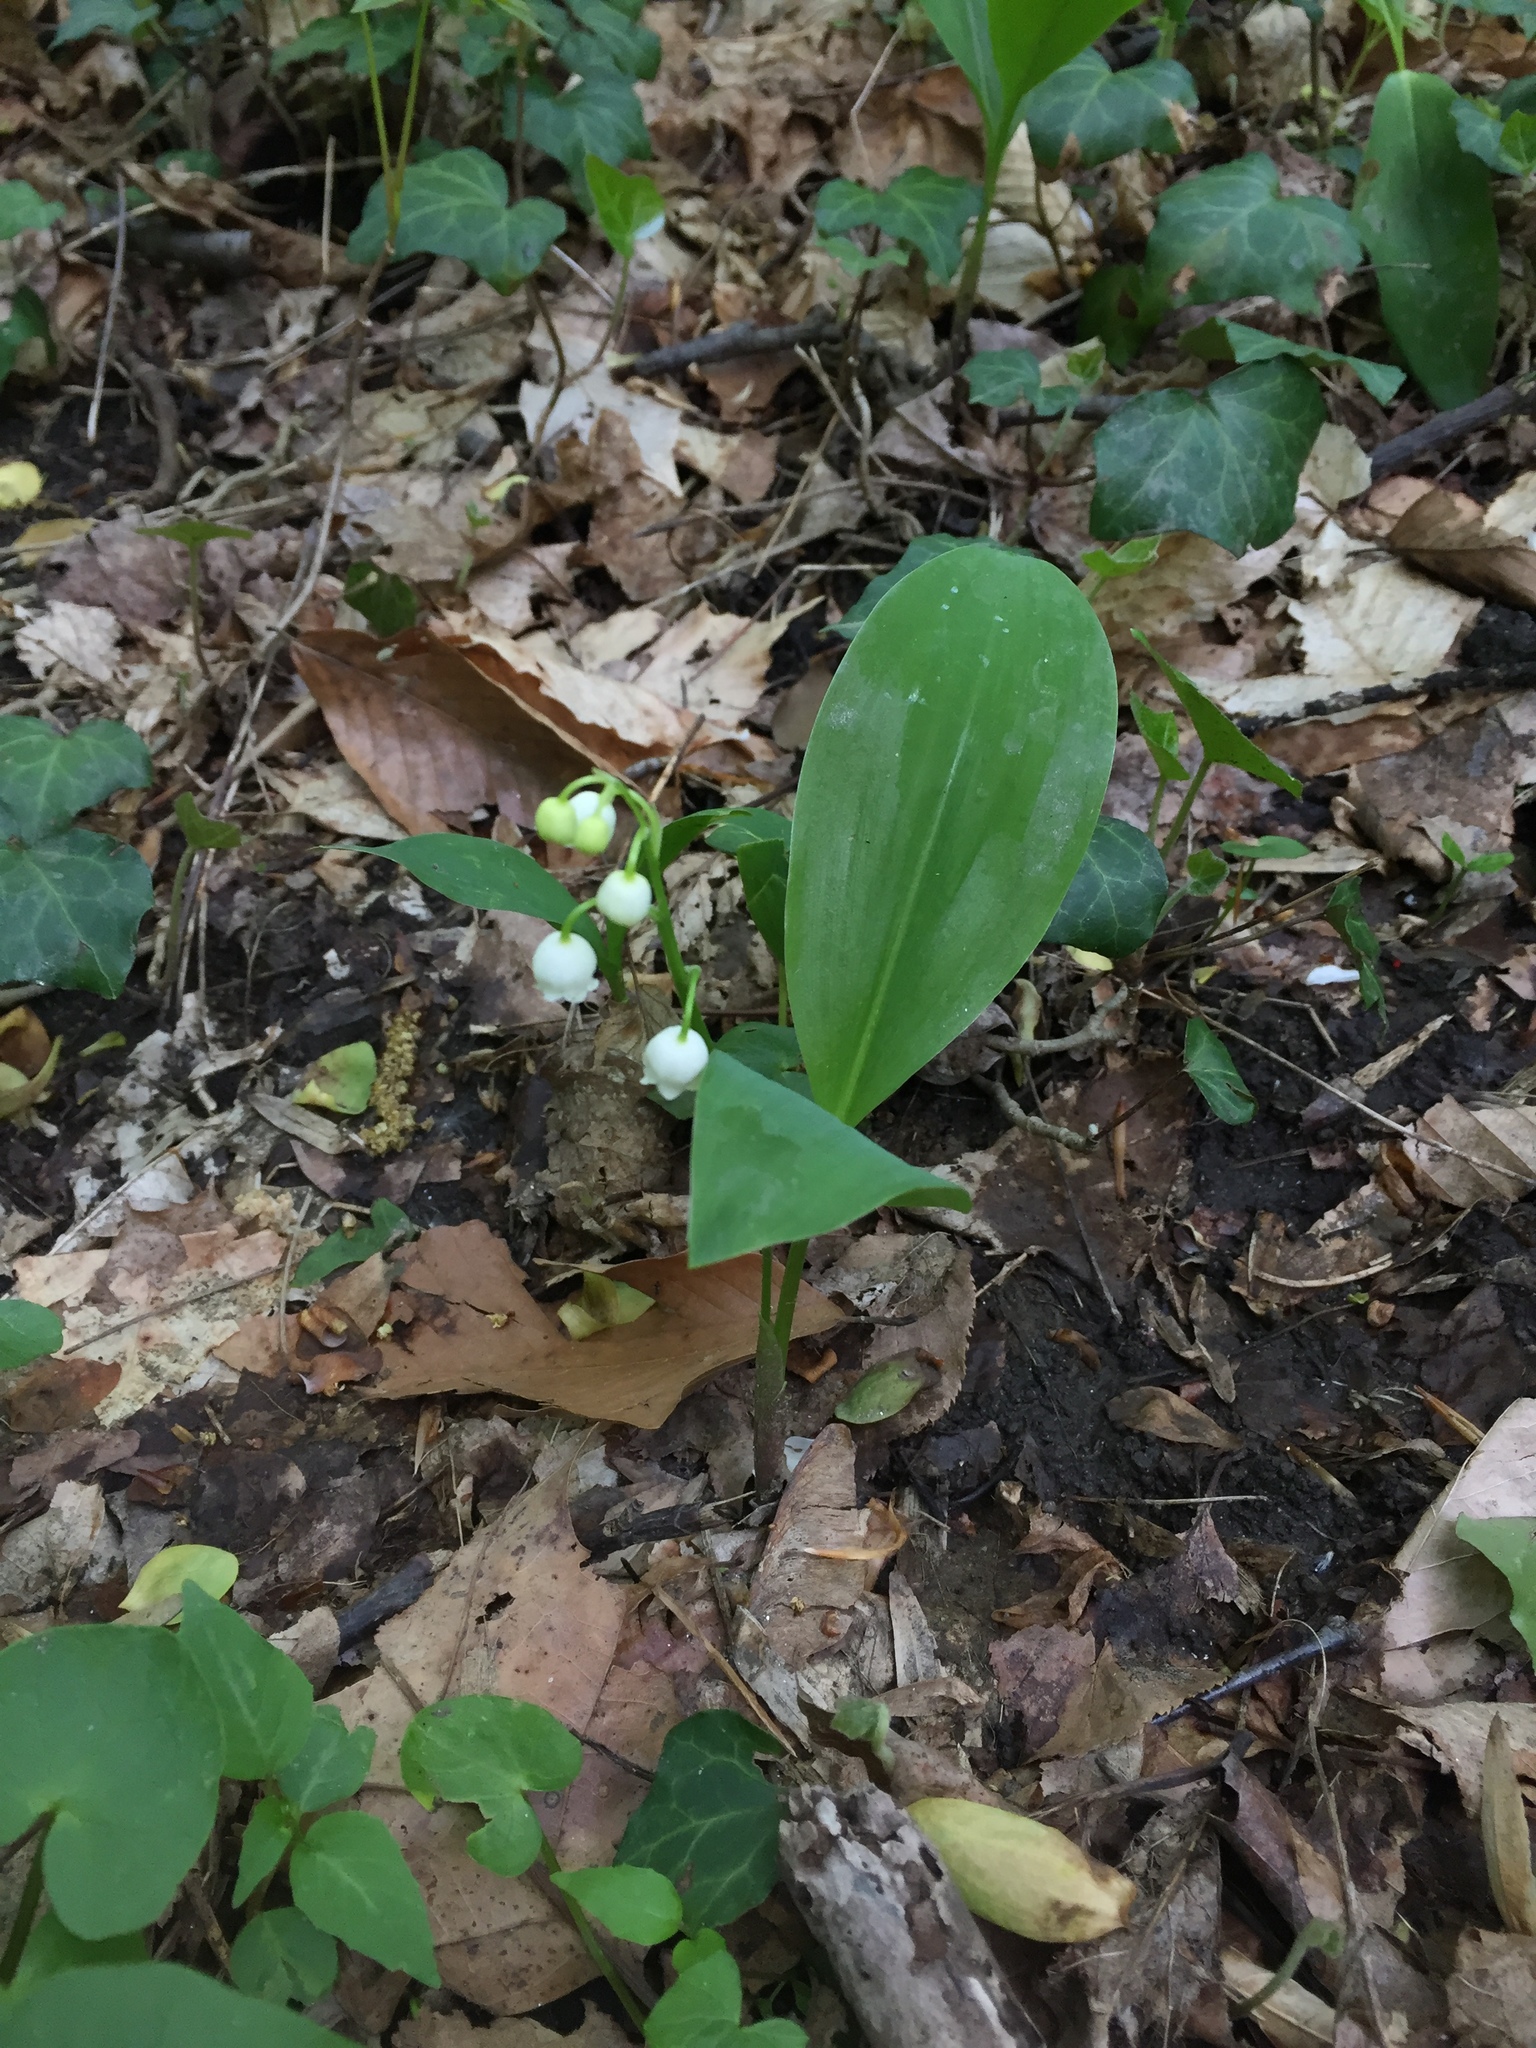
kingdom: Plantae
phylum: Tracheophyta
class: Liliopsida
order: Asparagales
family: Asparagaceae
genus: Convallaria
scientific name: Convallaria majalis
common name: Lily-of-the-valley
